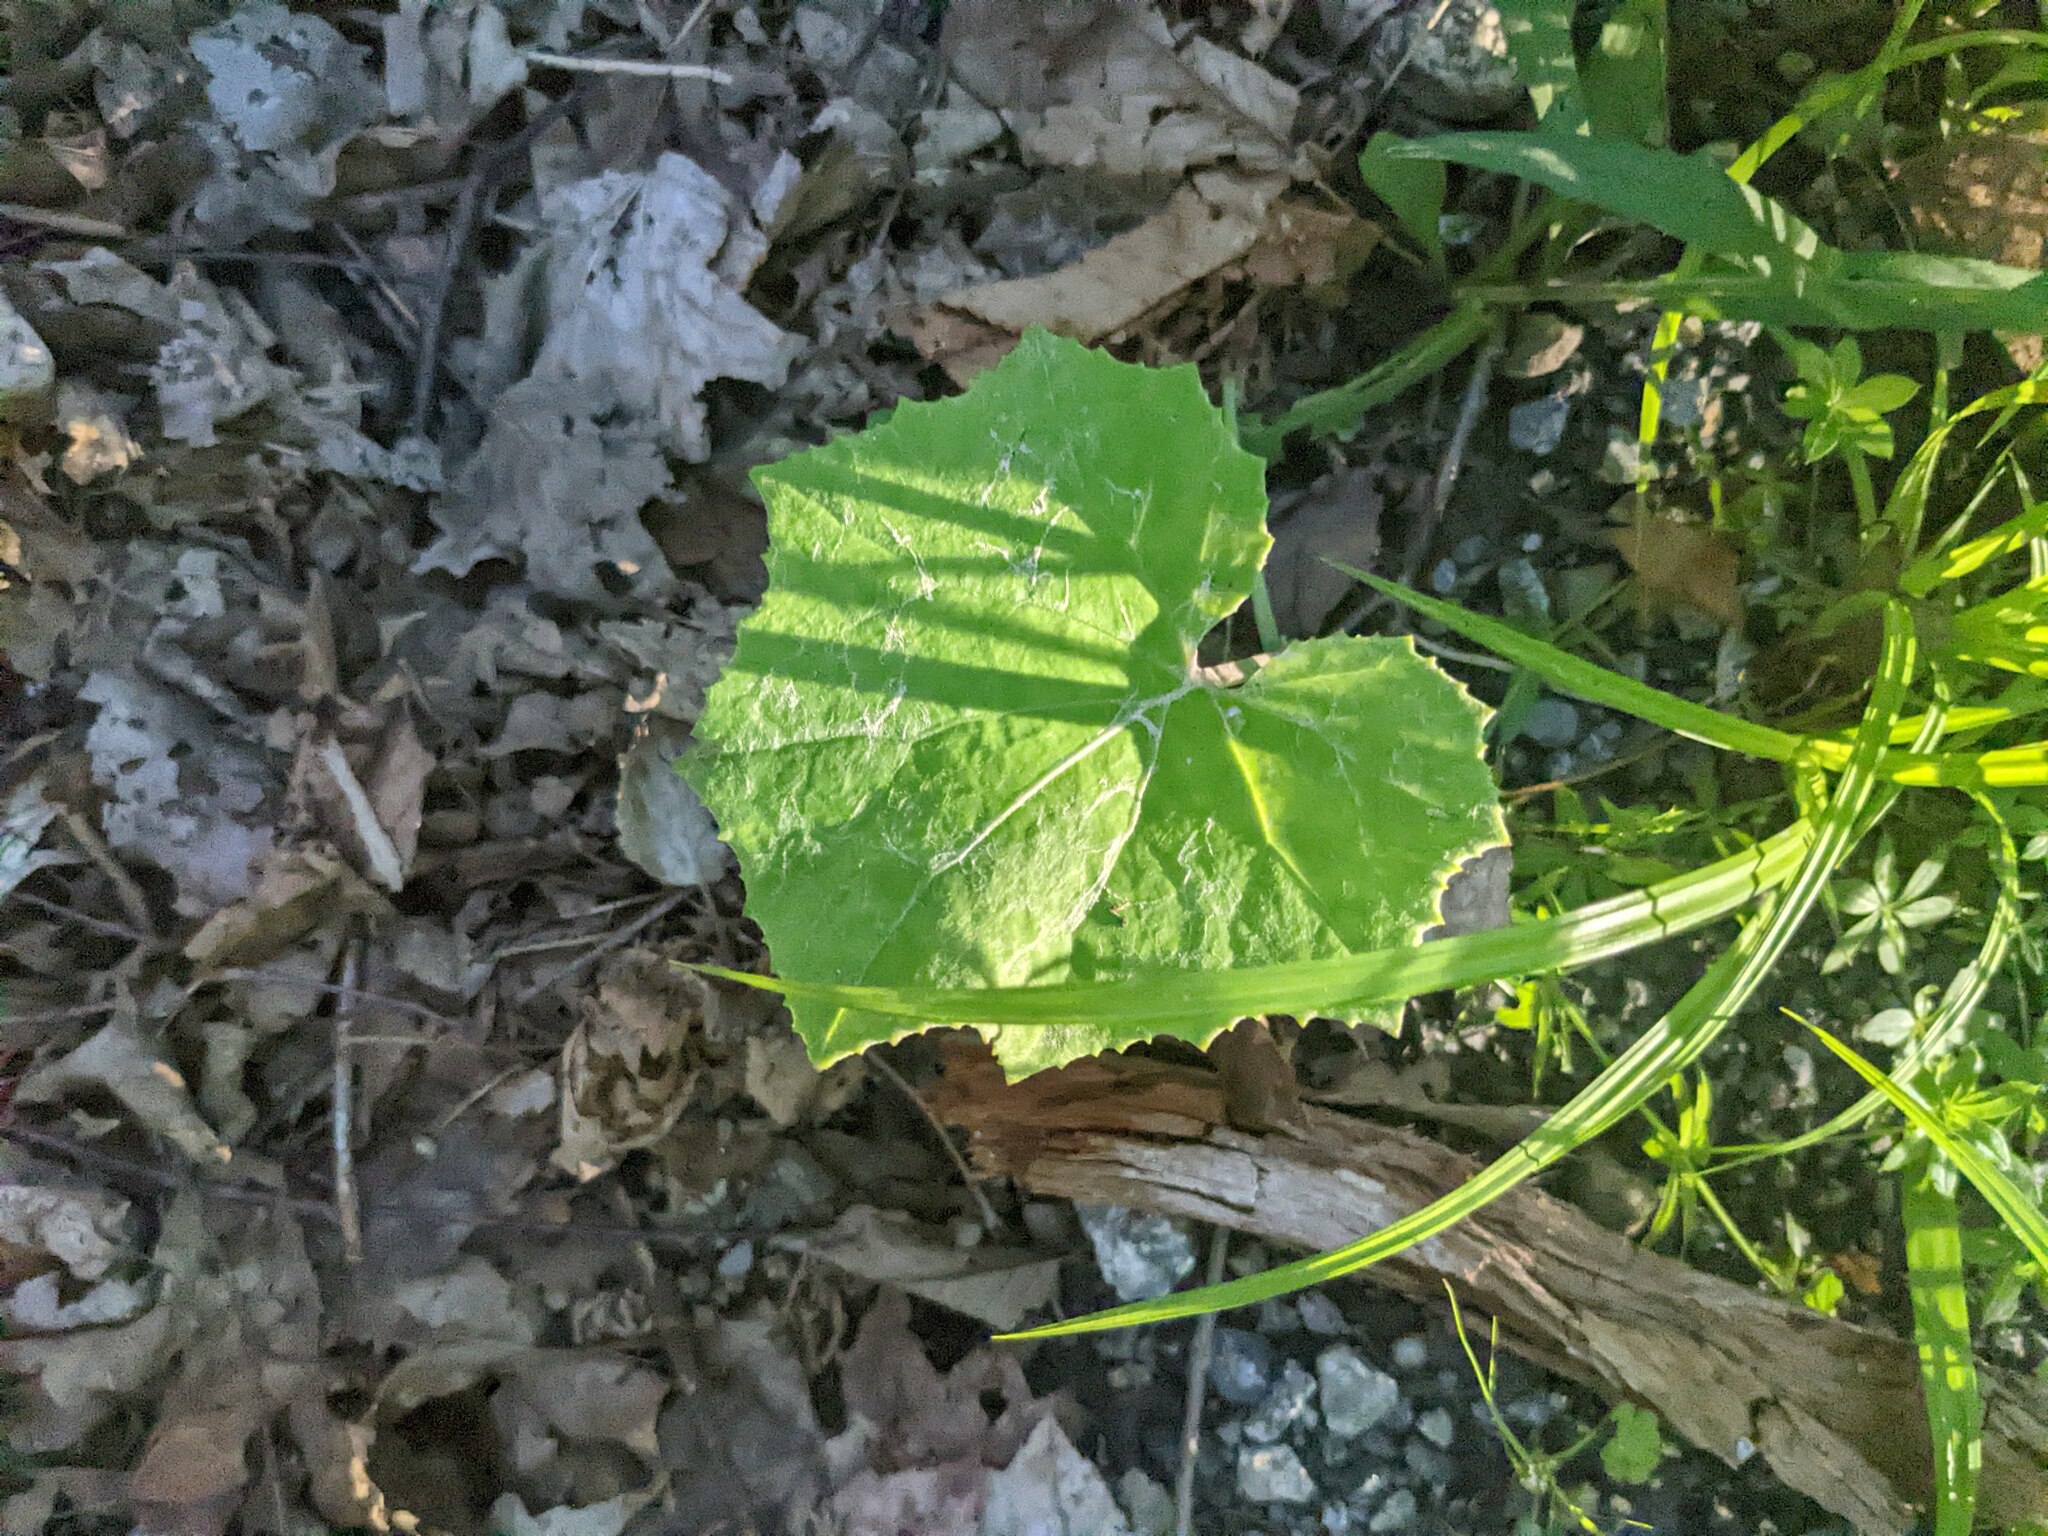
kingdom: Plantae
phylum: Tracheophyta
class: Magnoliopsida
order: Asterales
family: Asteraceae
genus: Tussilago
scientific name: Tussilago farfara
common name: Coltsfoot
